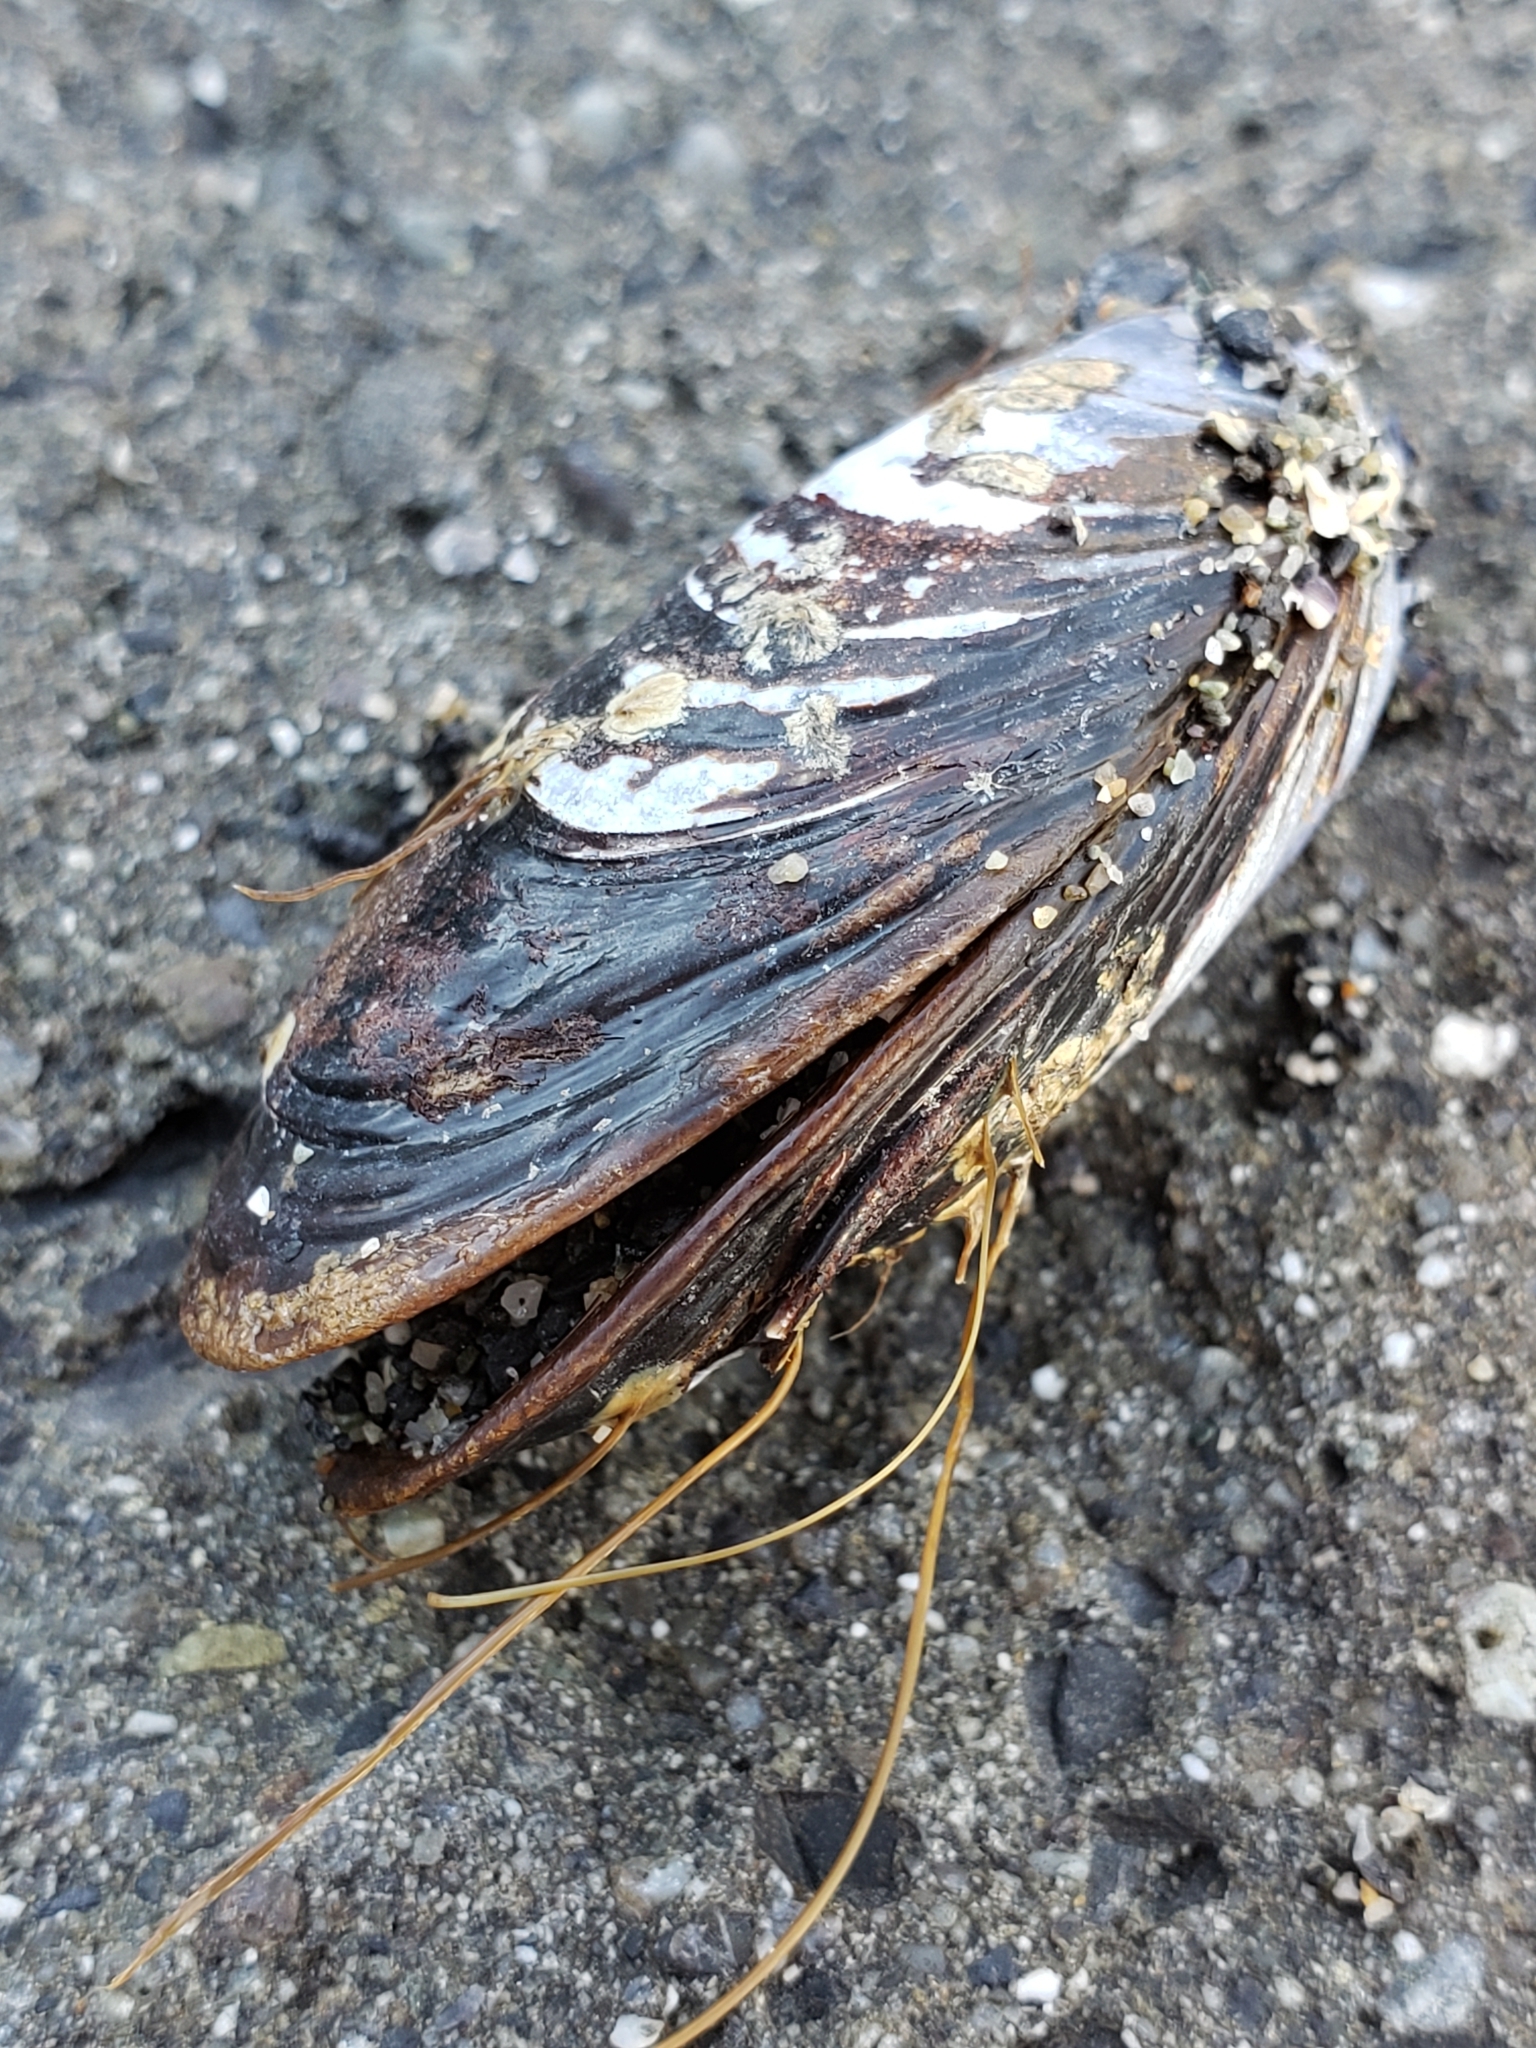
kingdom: Animalia
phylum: Mollusca
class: Bivalvia
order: Mytilida
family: Mytilidae
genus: Mytilus
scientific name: Mytilus californianus
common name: California mussel
